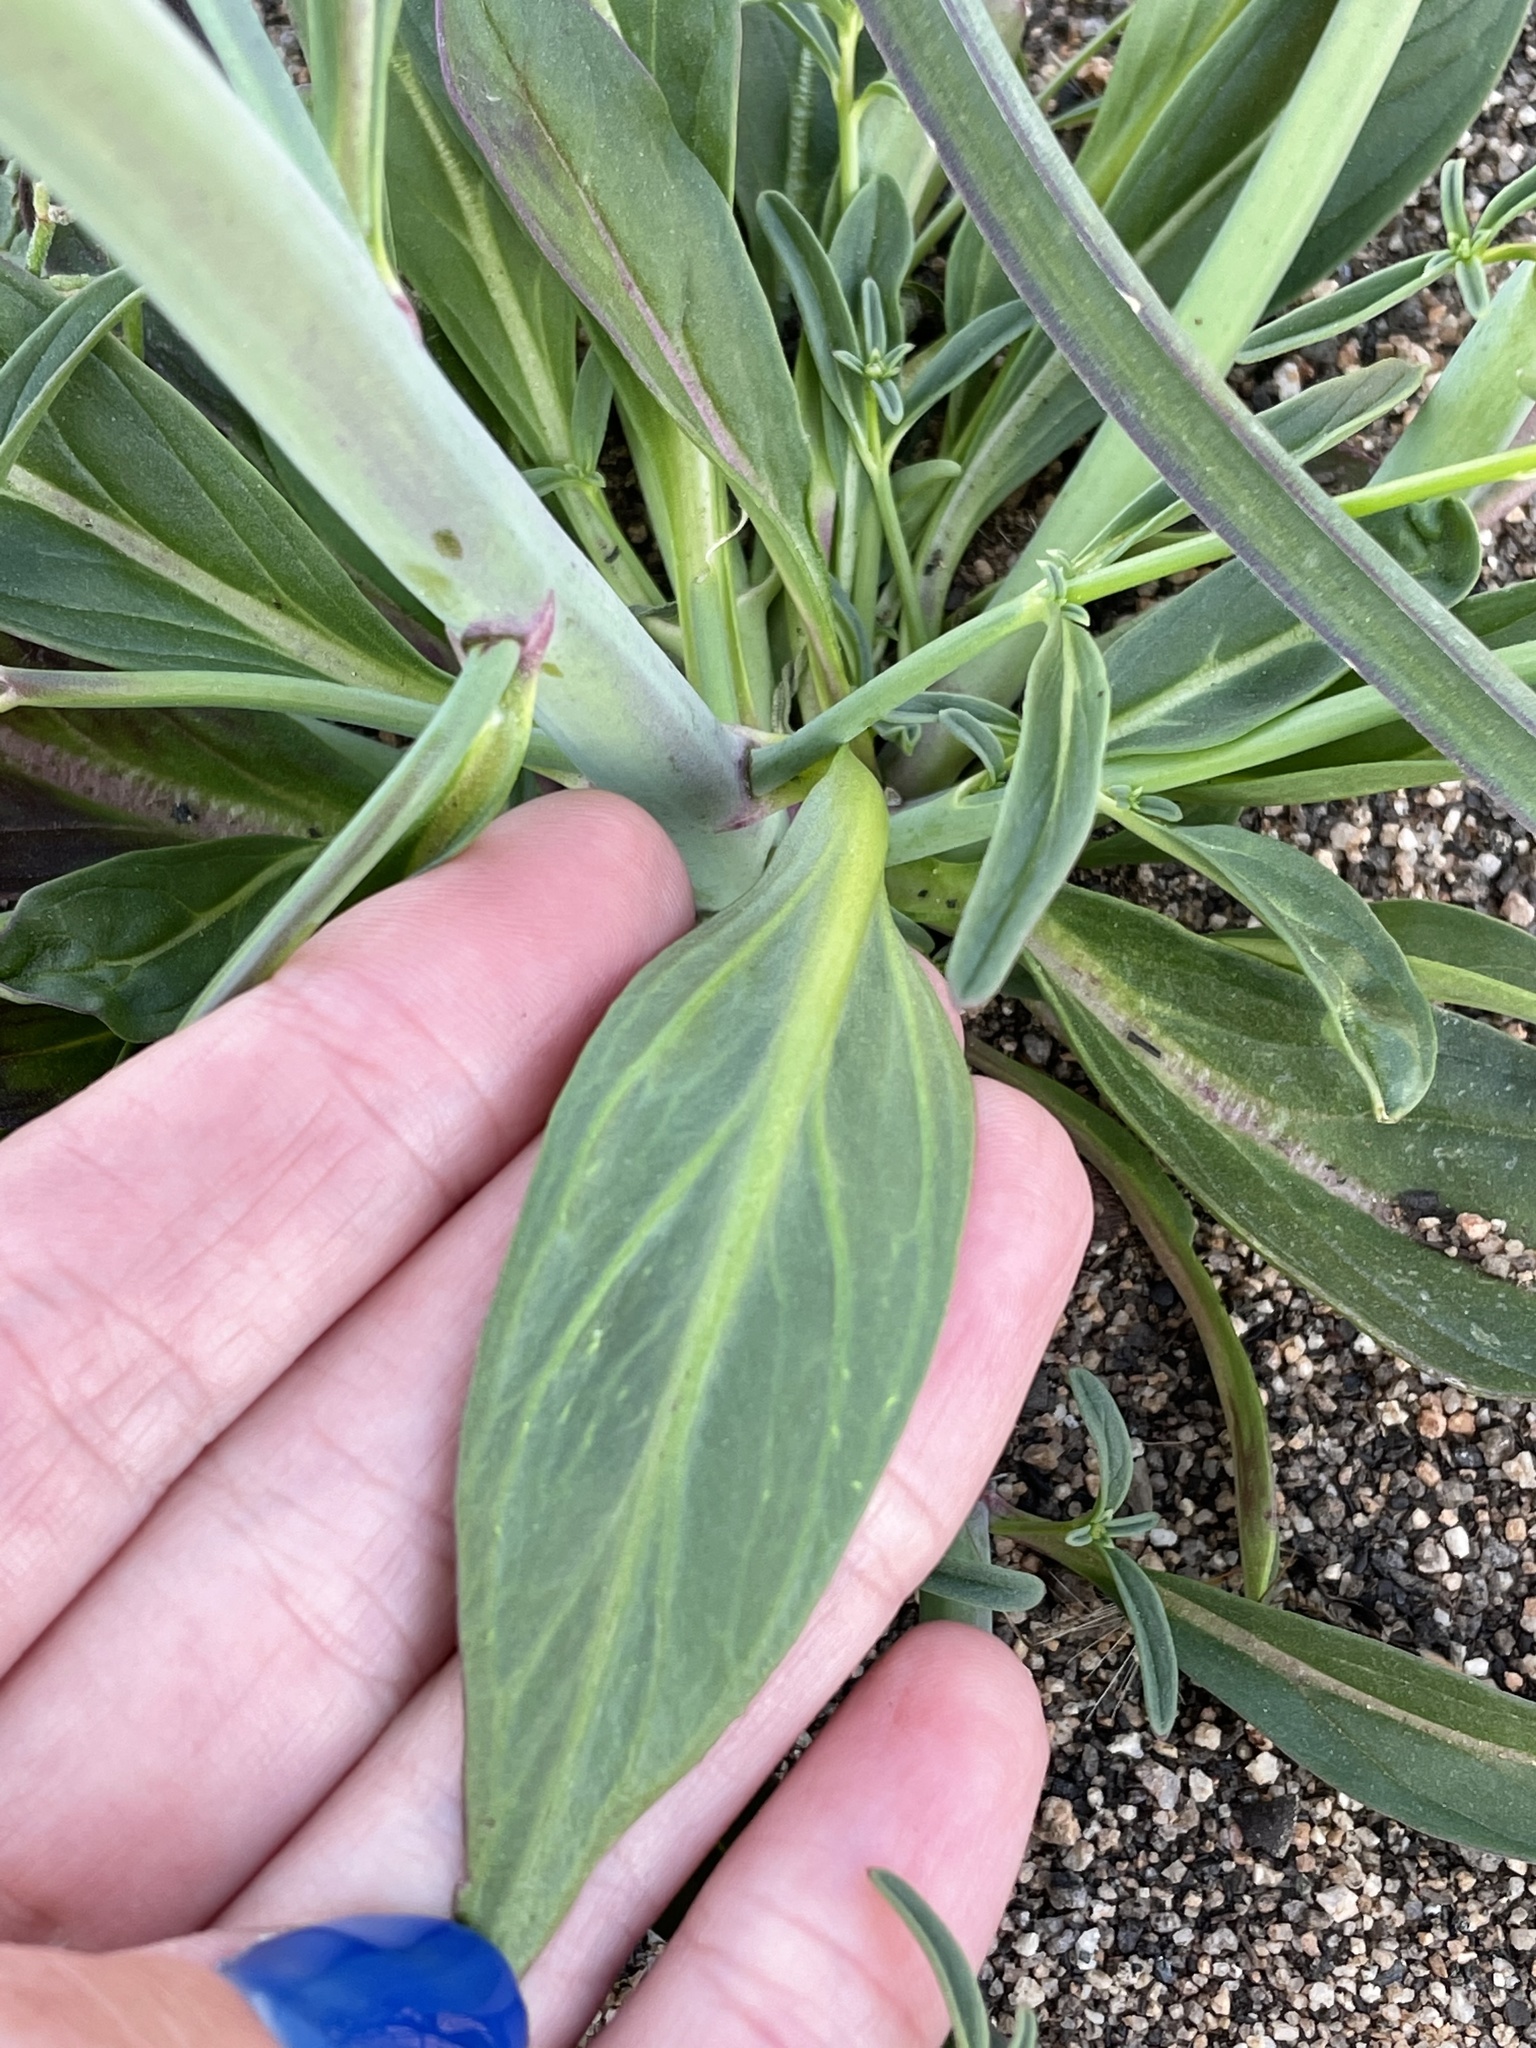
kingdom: Plantae
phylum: Tracheophyta
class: Magnoliopsida
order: Lamiales
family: Plantaginaceae
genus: Sairocarpus
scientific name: Sairocarpus coulterianus
